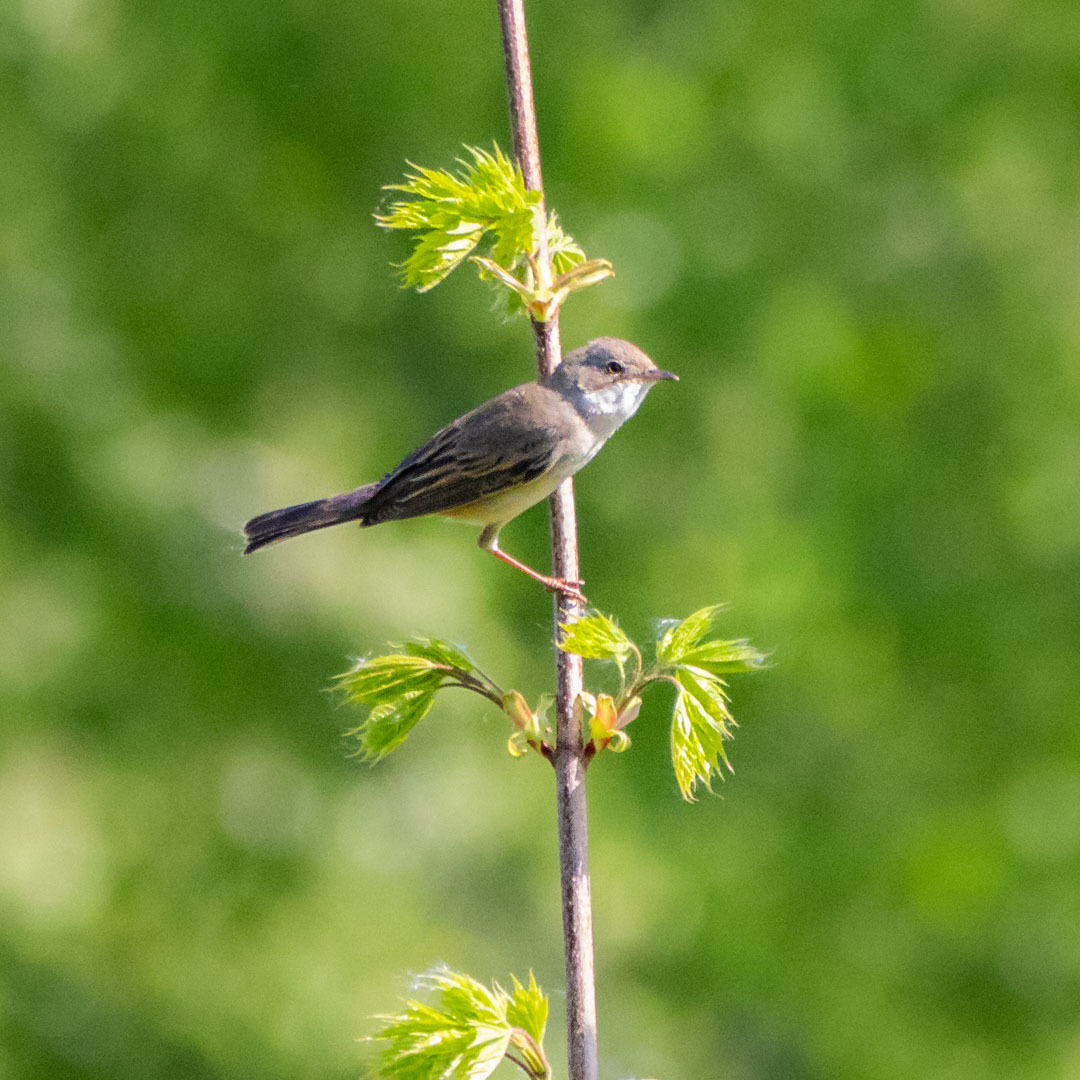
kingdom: Animalia
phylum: Chordata
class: Aves
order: Passeriformes
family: Sylviidae
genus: Sylvia
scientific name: Sylvia communis
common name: Common whitethroat
